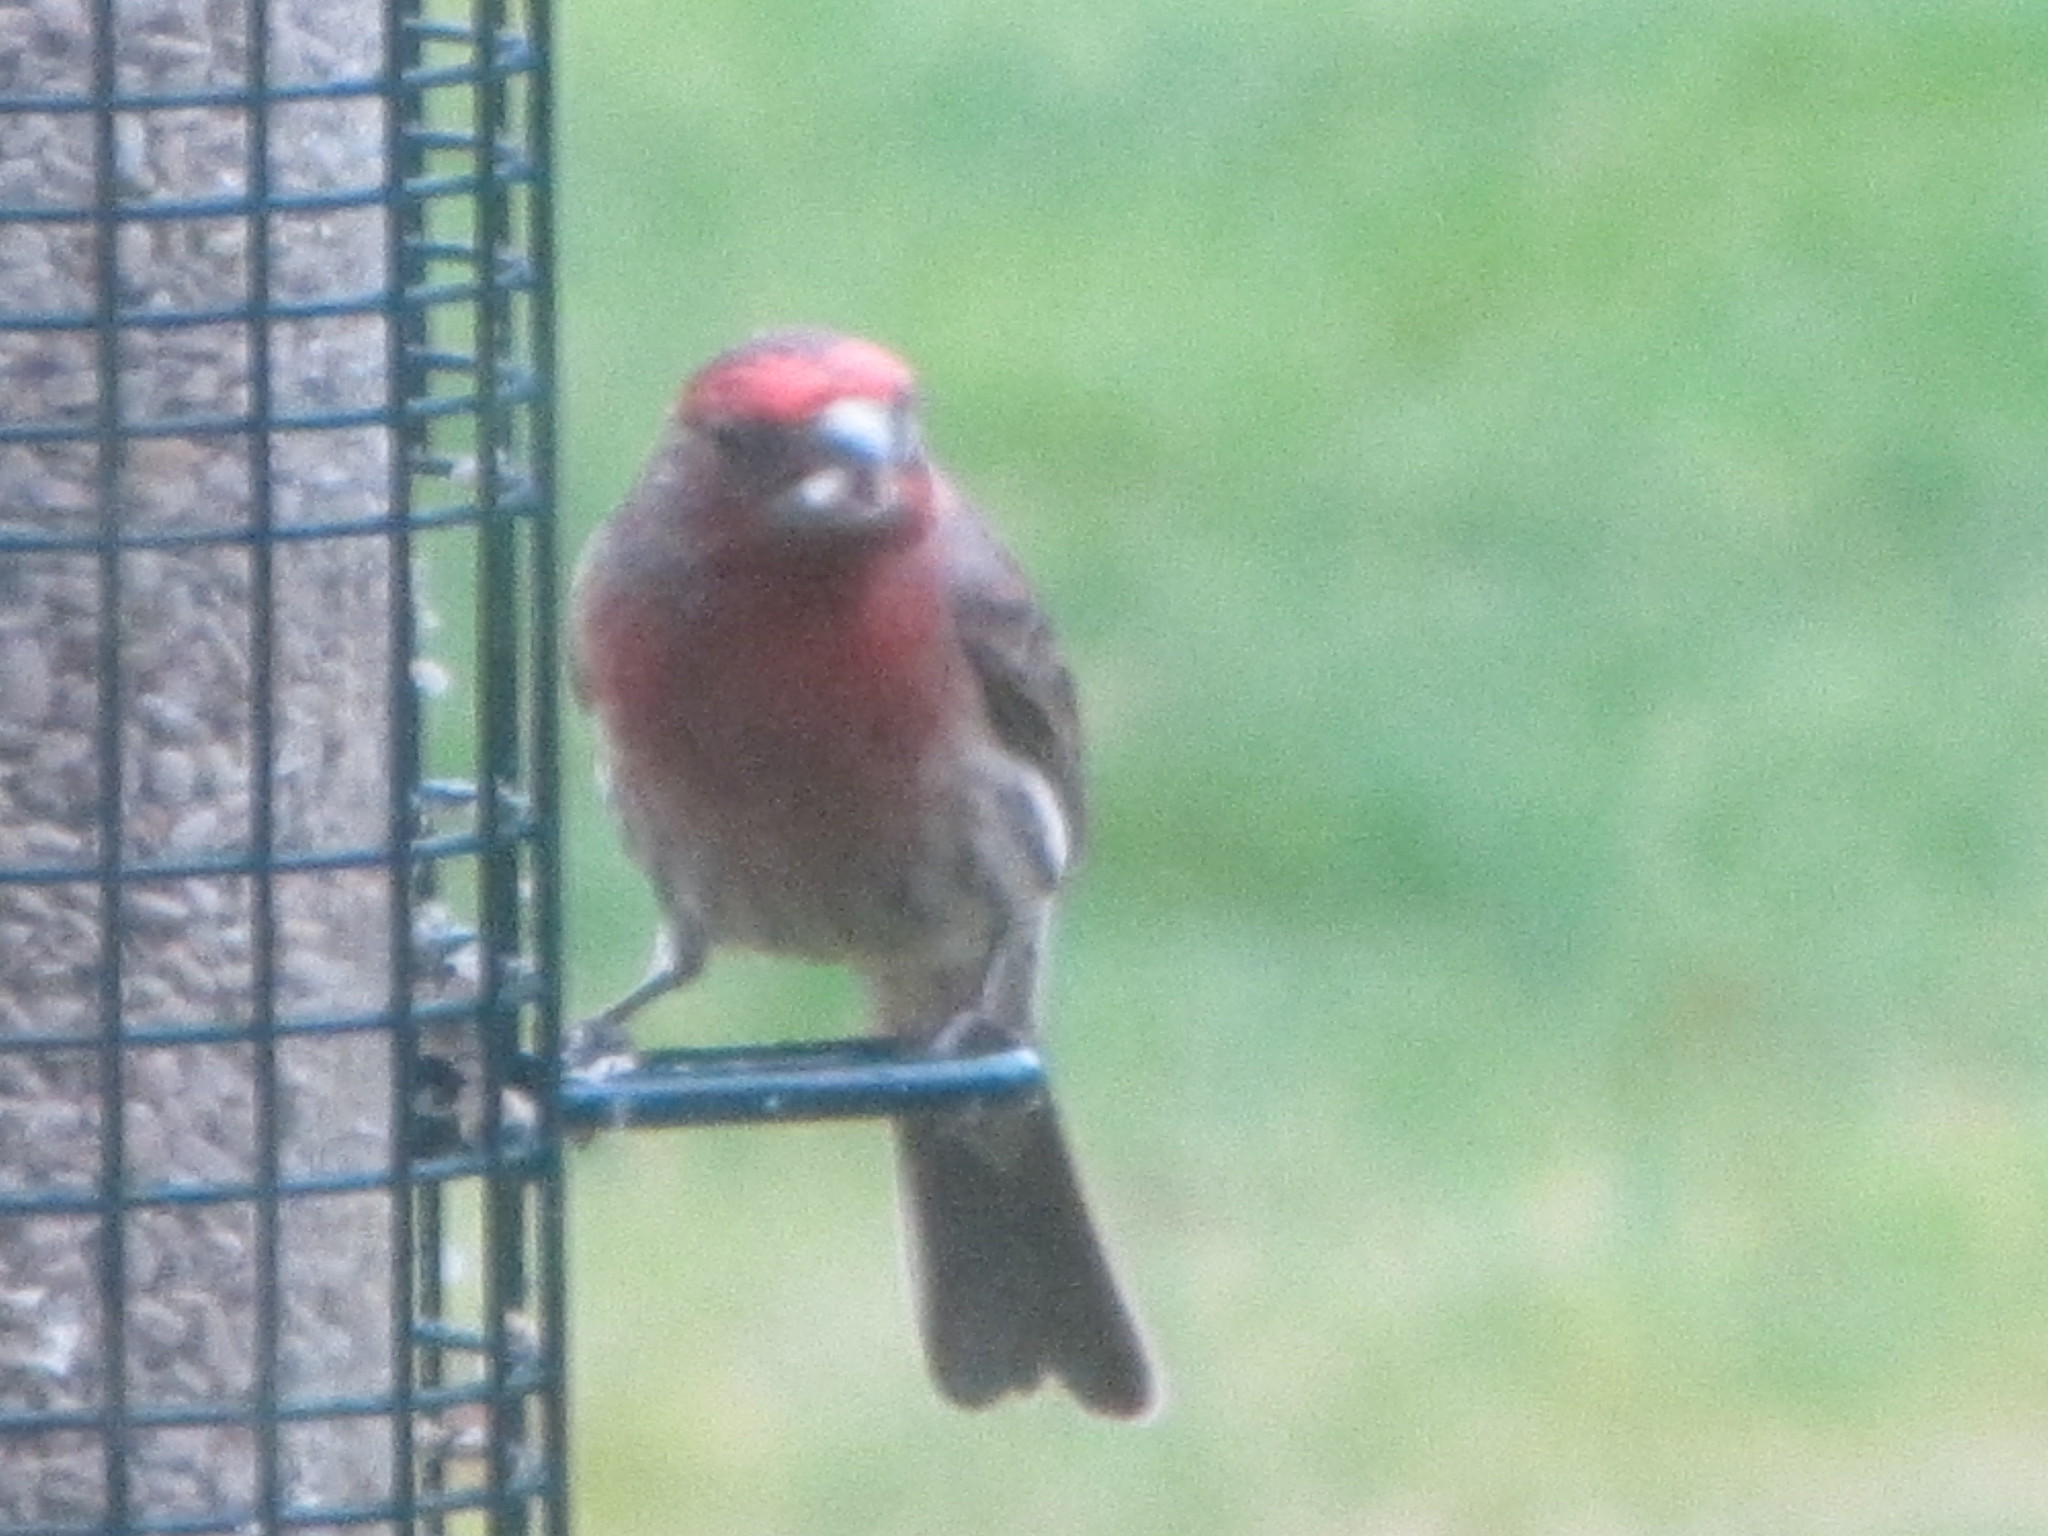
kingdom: Animalia
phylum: Chordata
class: Aves
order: Passeriformes
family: Fringillidae
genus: Haemorhous
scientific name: Haemorhous mexicanus
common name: House finch
